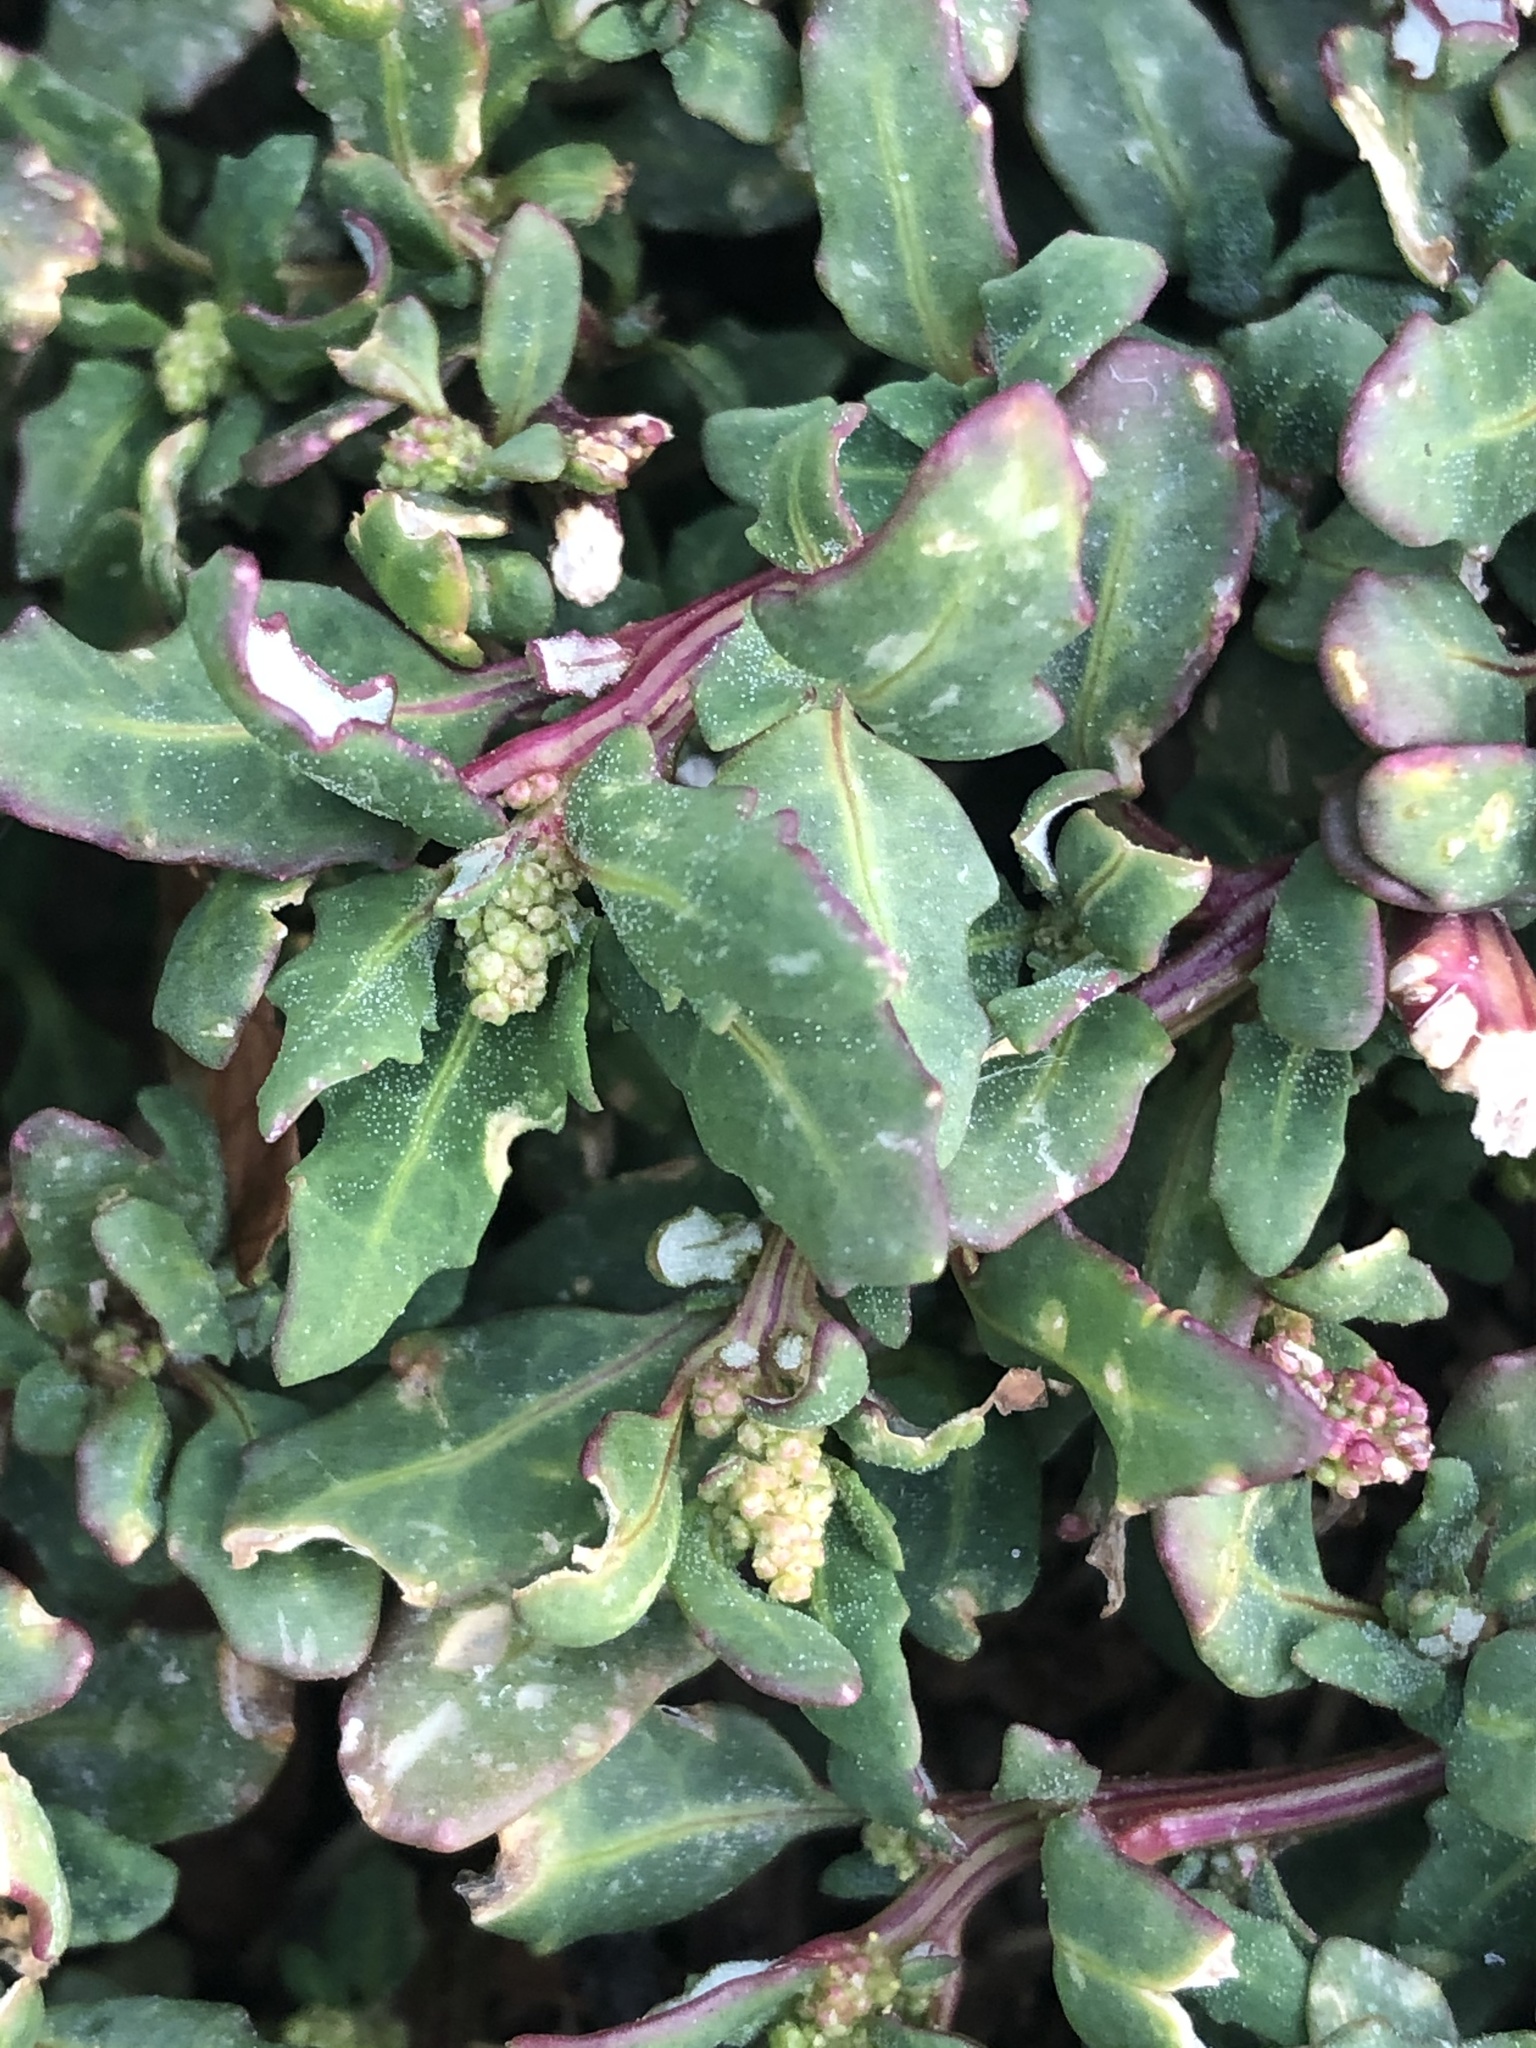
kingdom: Plantae
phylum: Tracheophyta
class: Magnoliopsida
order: Caryophyllales
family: Amaranthaceae
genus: Oxybasis
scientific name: Oxybasis glauca
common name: Glaucous goosefoot
